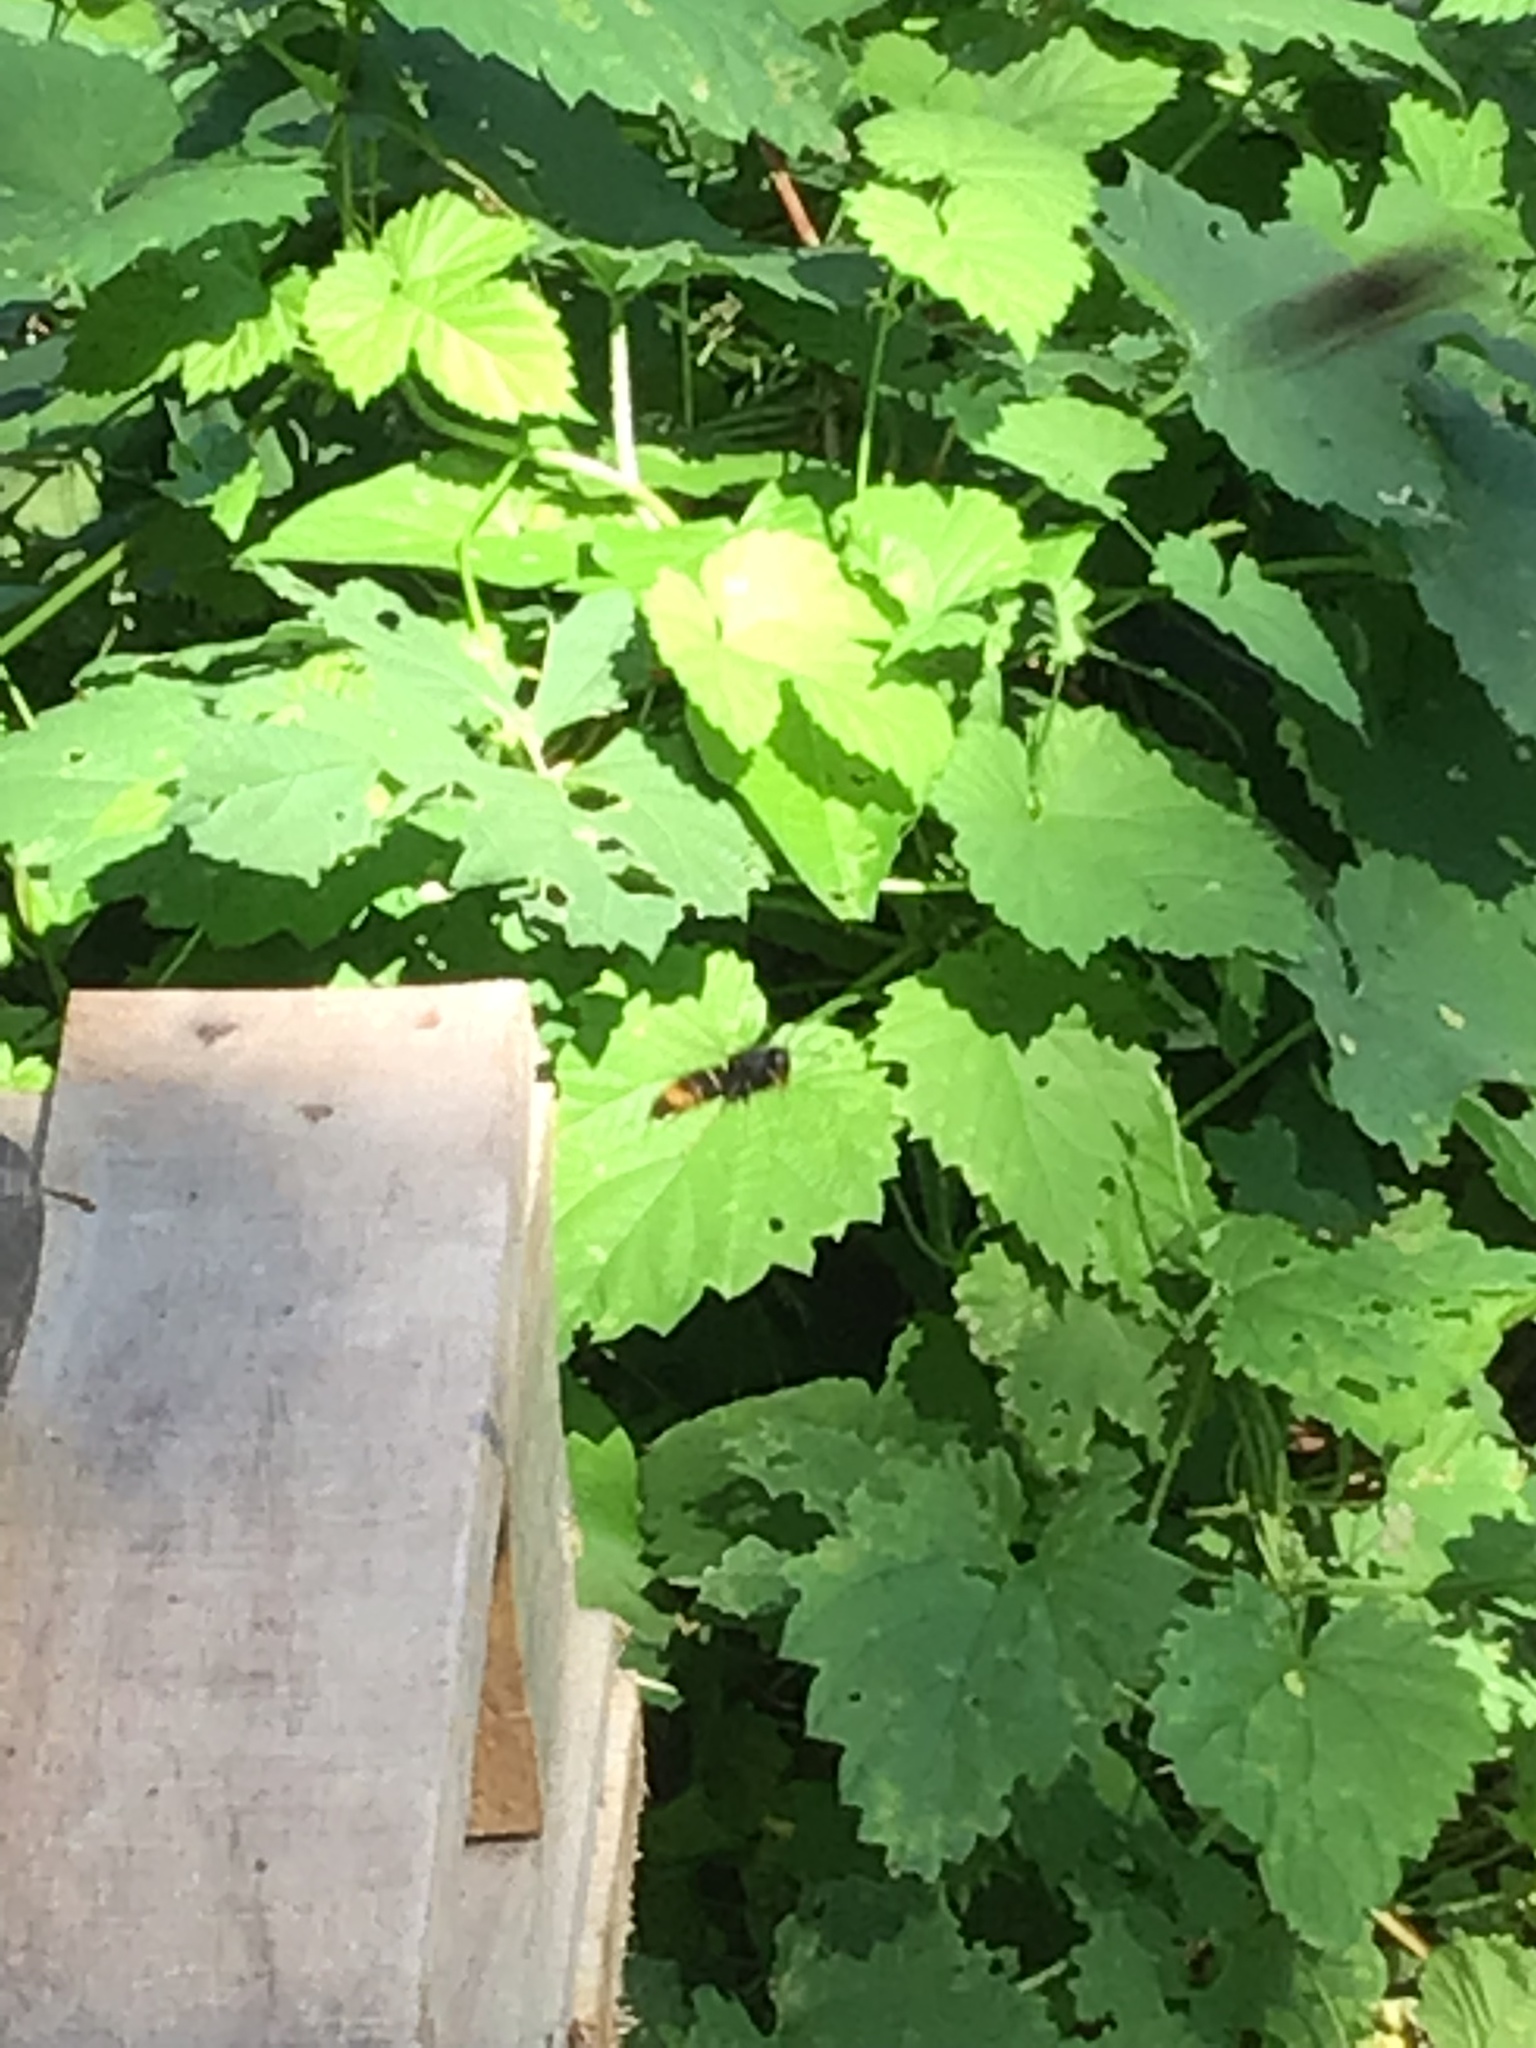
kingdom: Animalia
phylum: Arthropoda
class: Insecta
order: Hymenoptera
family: Vespidae
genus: Vespa
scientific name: Vespa velutina
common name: Asian hornet
